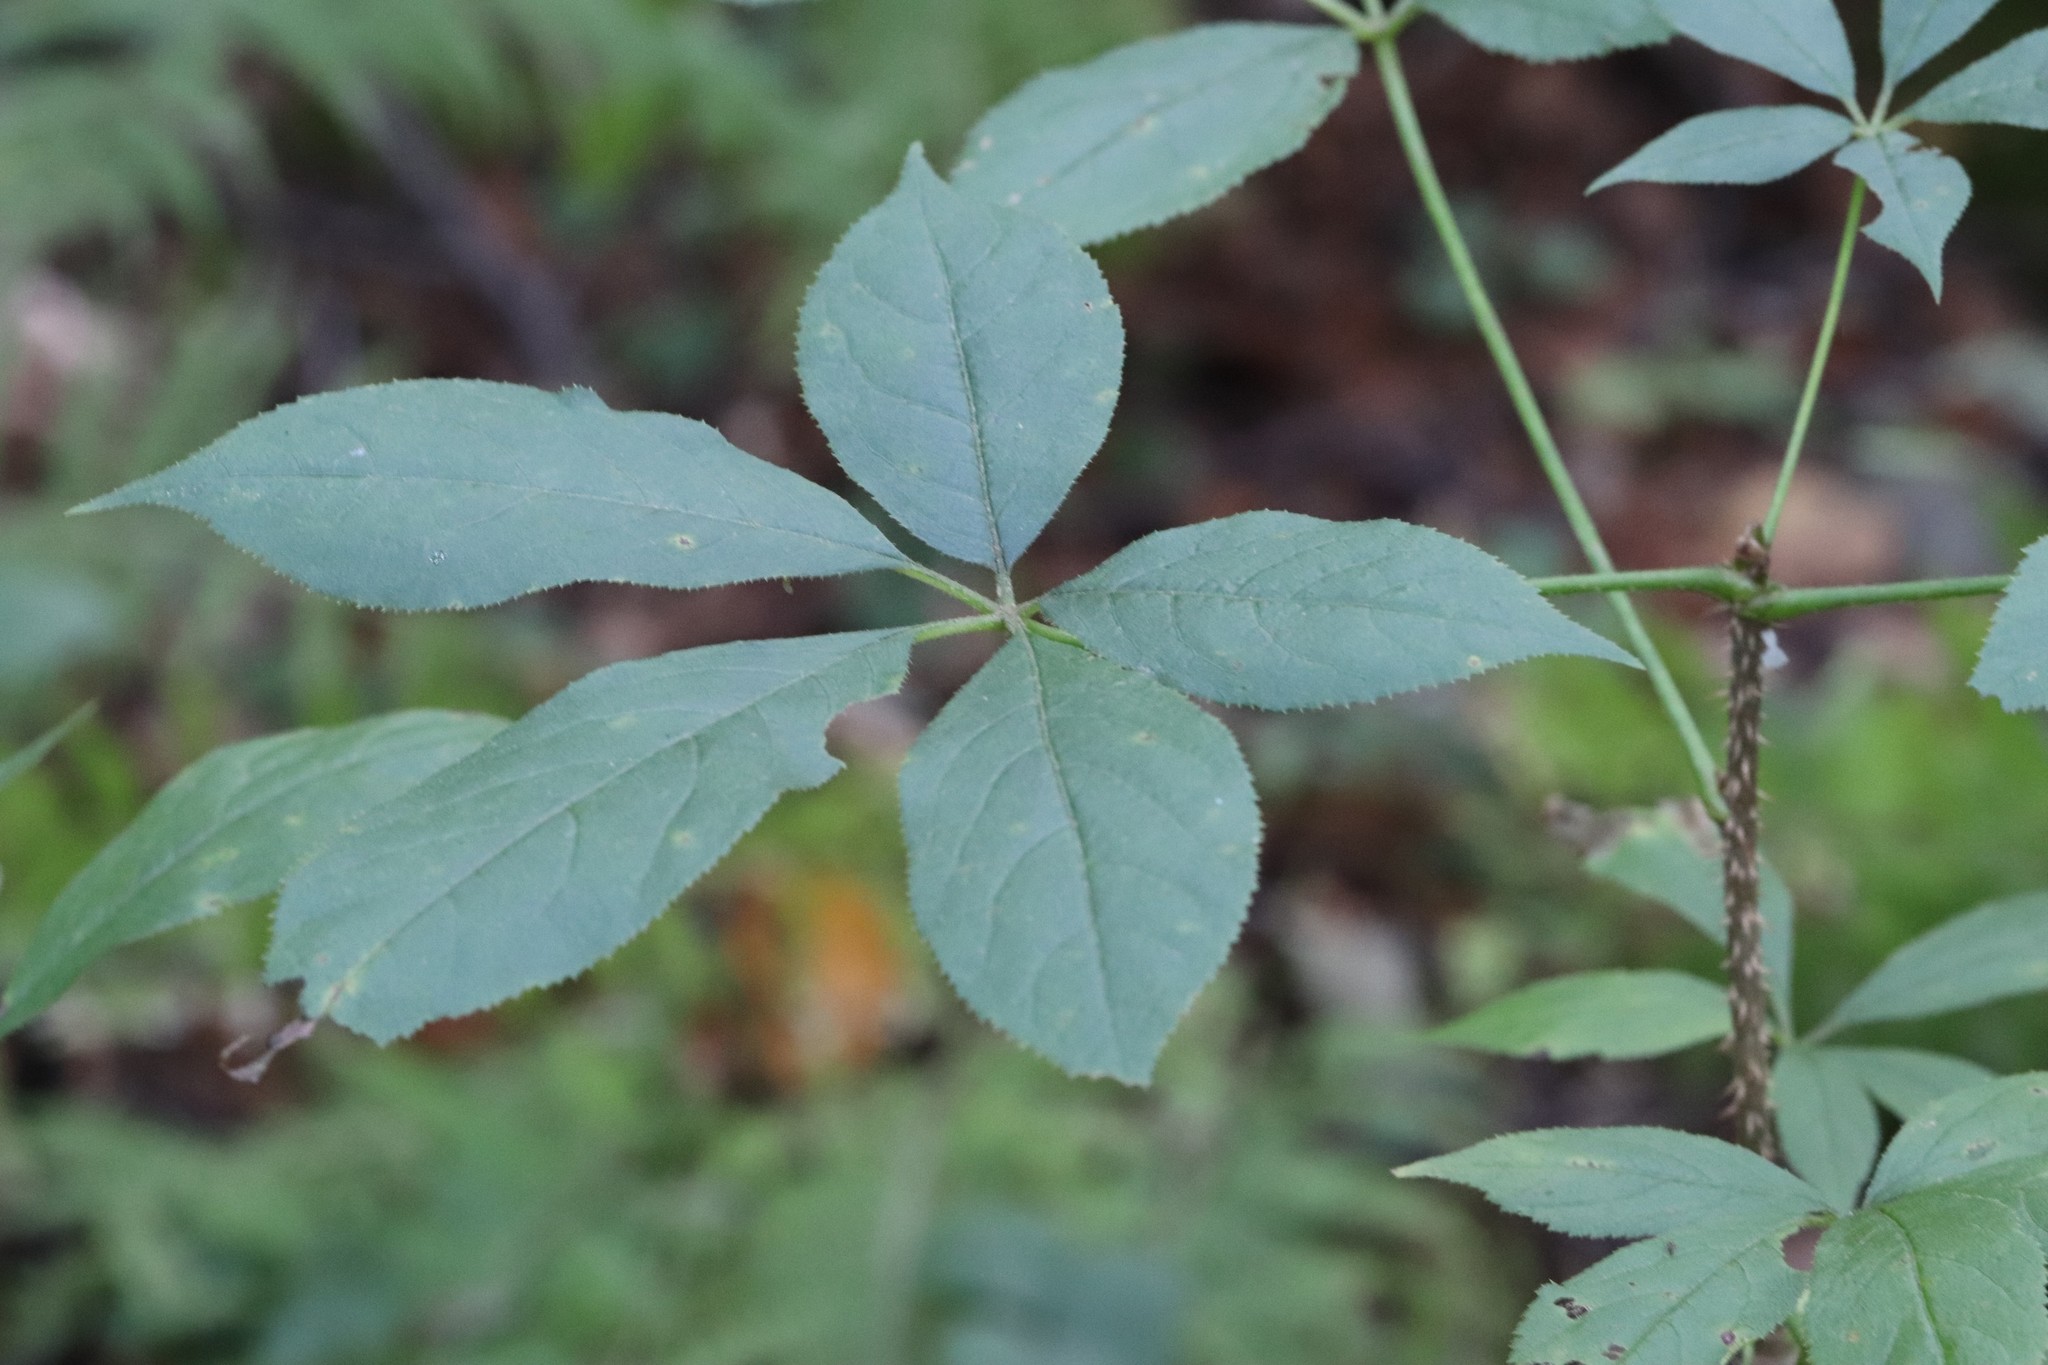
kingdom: Plantae
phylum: Tracheophyta
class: Magnoliopsida
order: Apiales
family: Araliaceae
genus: Eleutherococcus
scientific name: Eleutherococcus senticosus
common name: Siberian-ginseng
